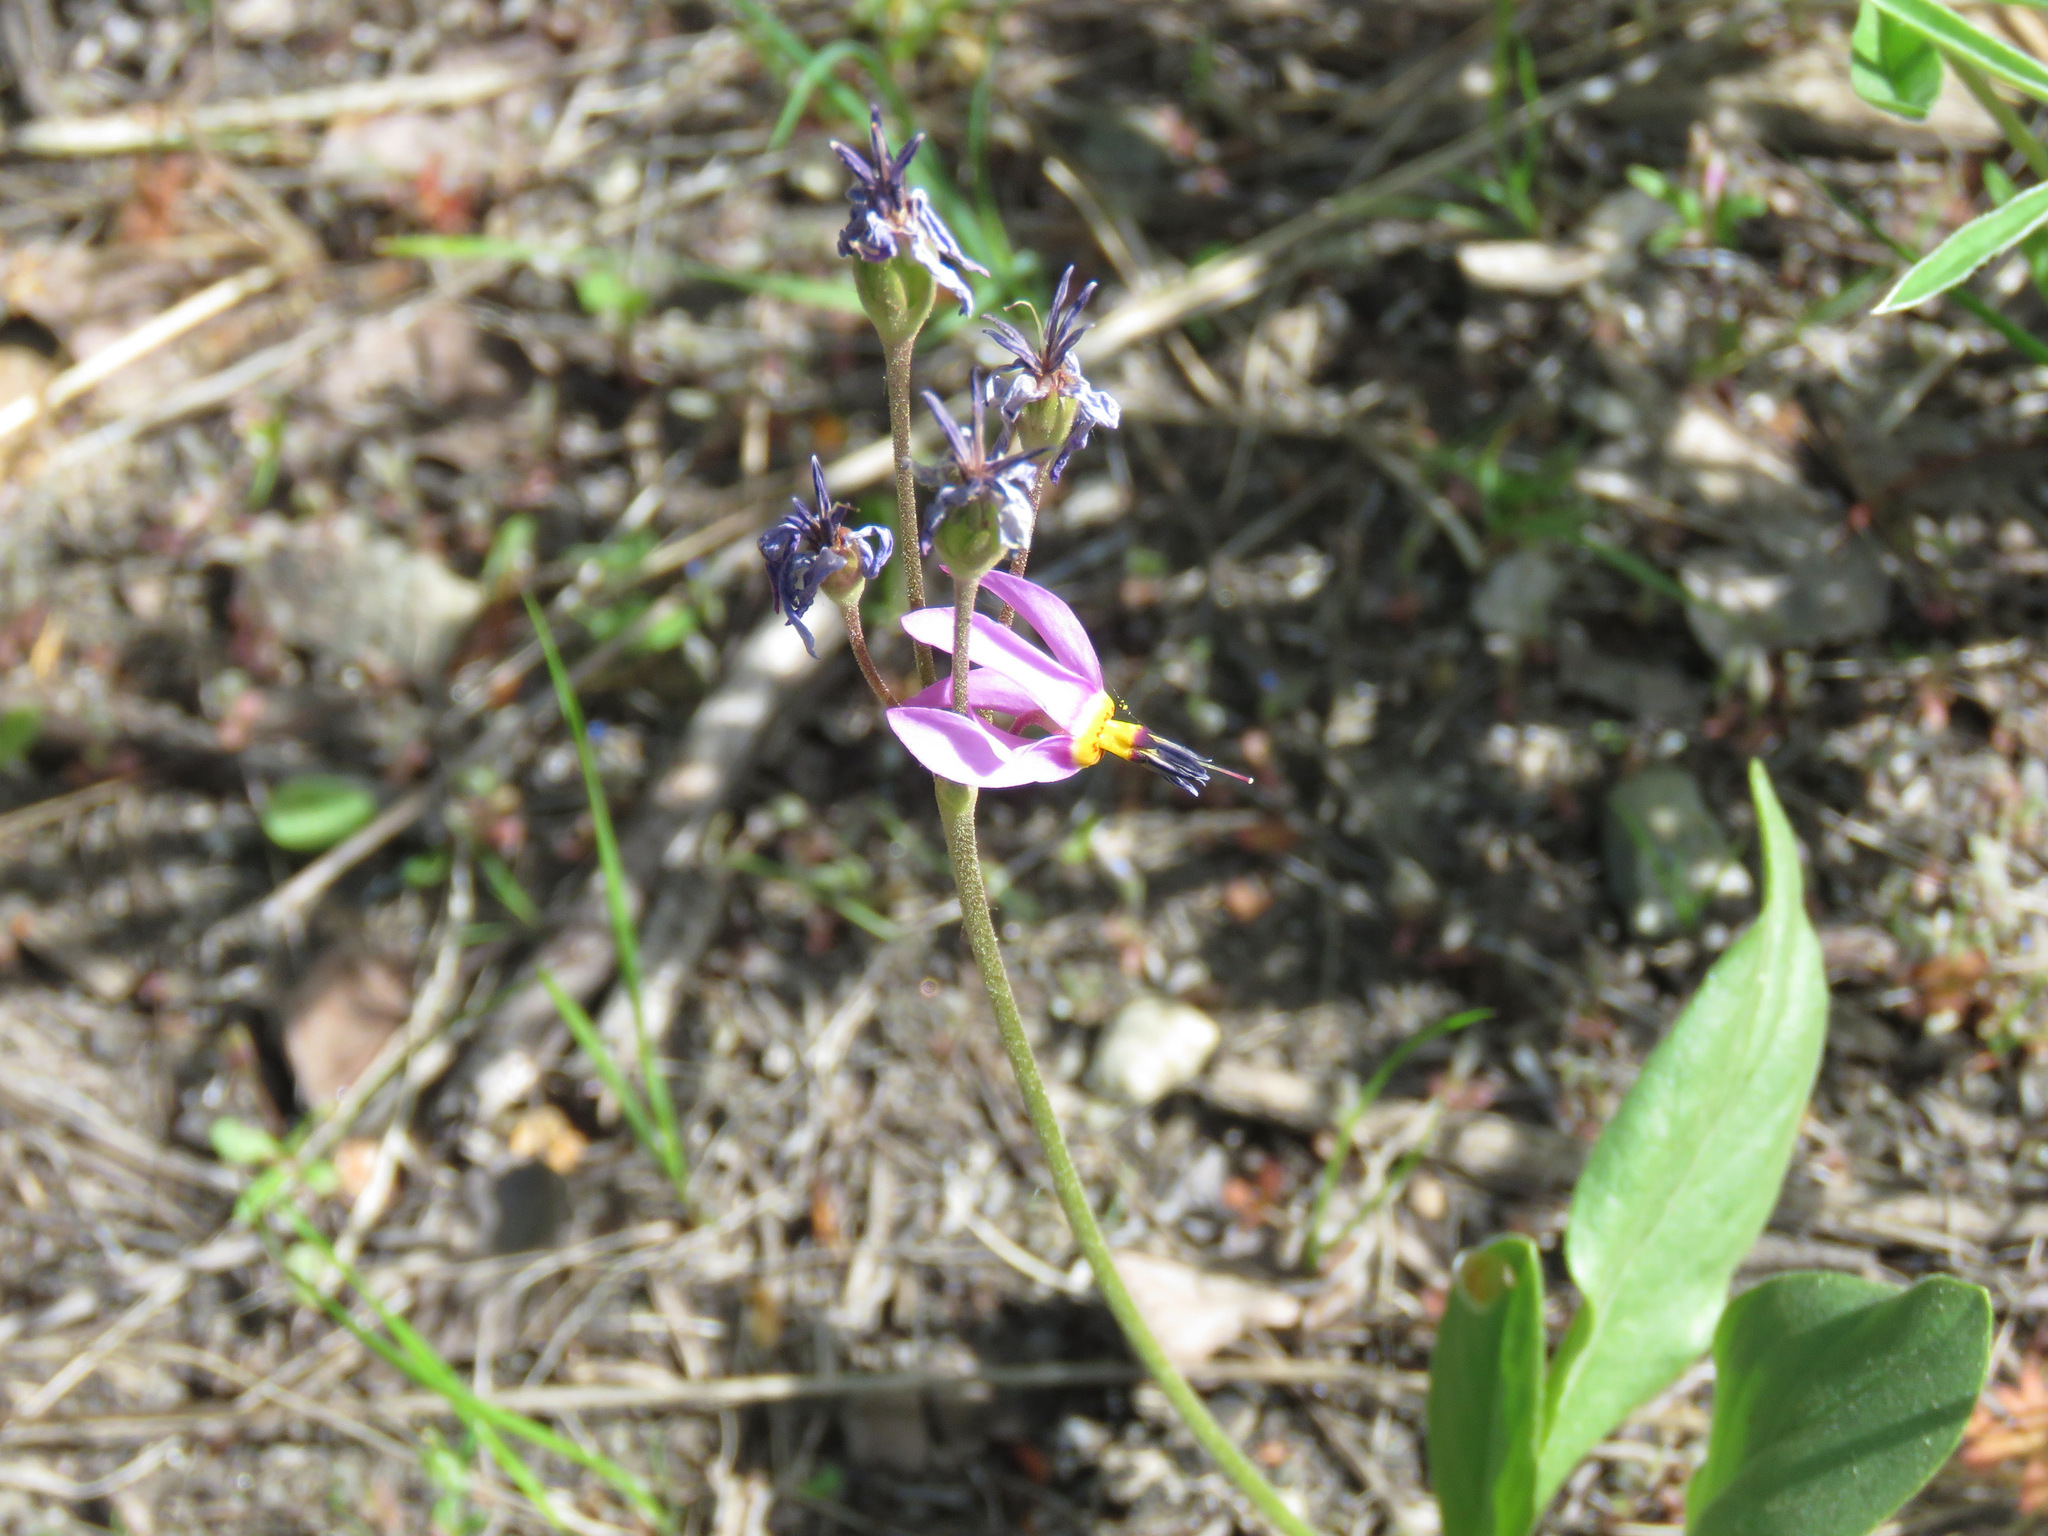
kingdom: Plantae
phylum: Tracheophyta
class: Magnoliopsida
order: Ericales
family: Primulaceae
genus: Dodecatheon
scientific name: Dodecatheon pulchellum
